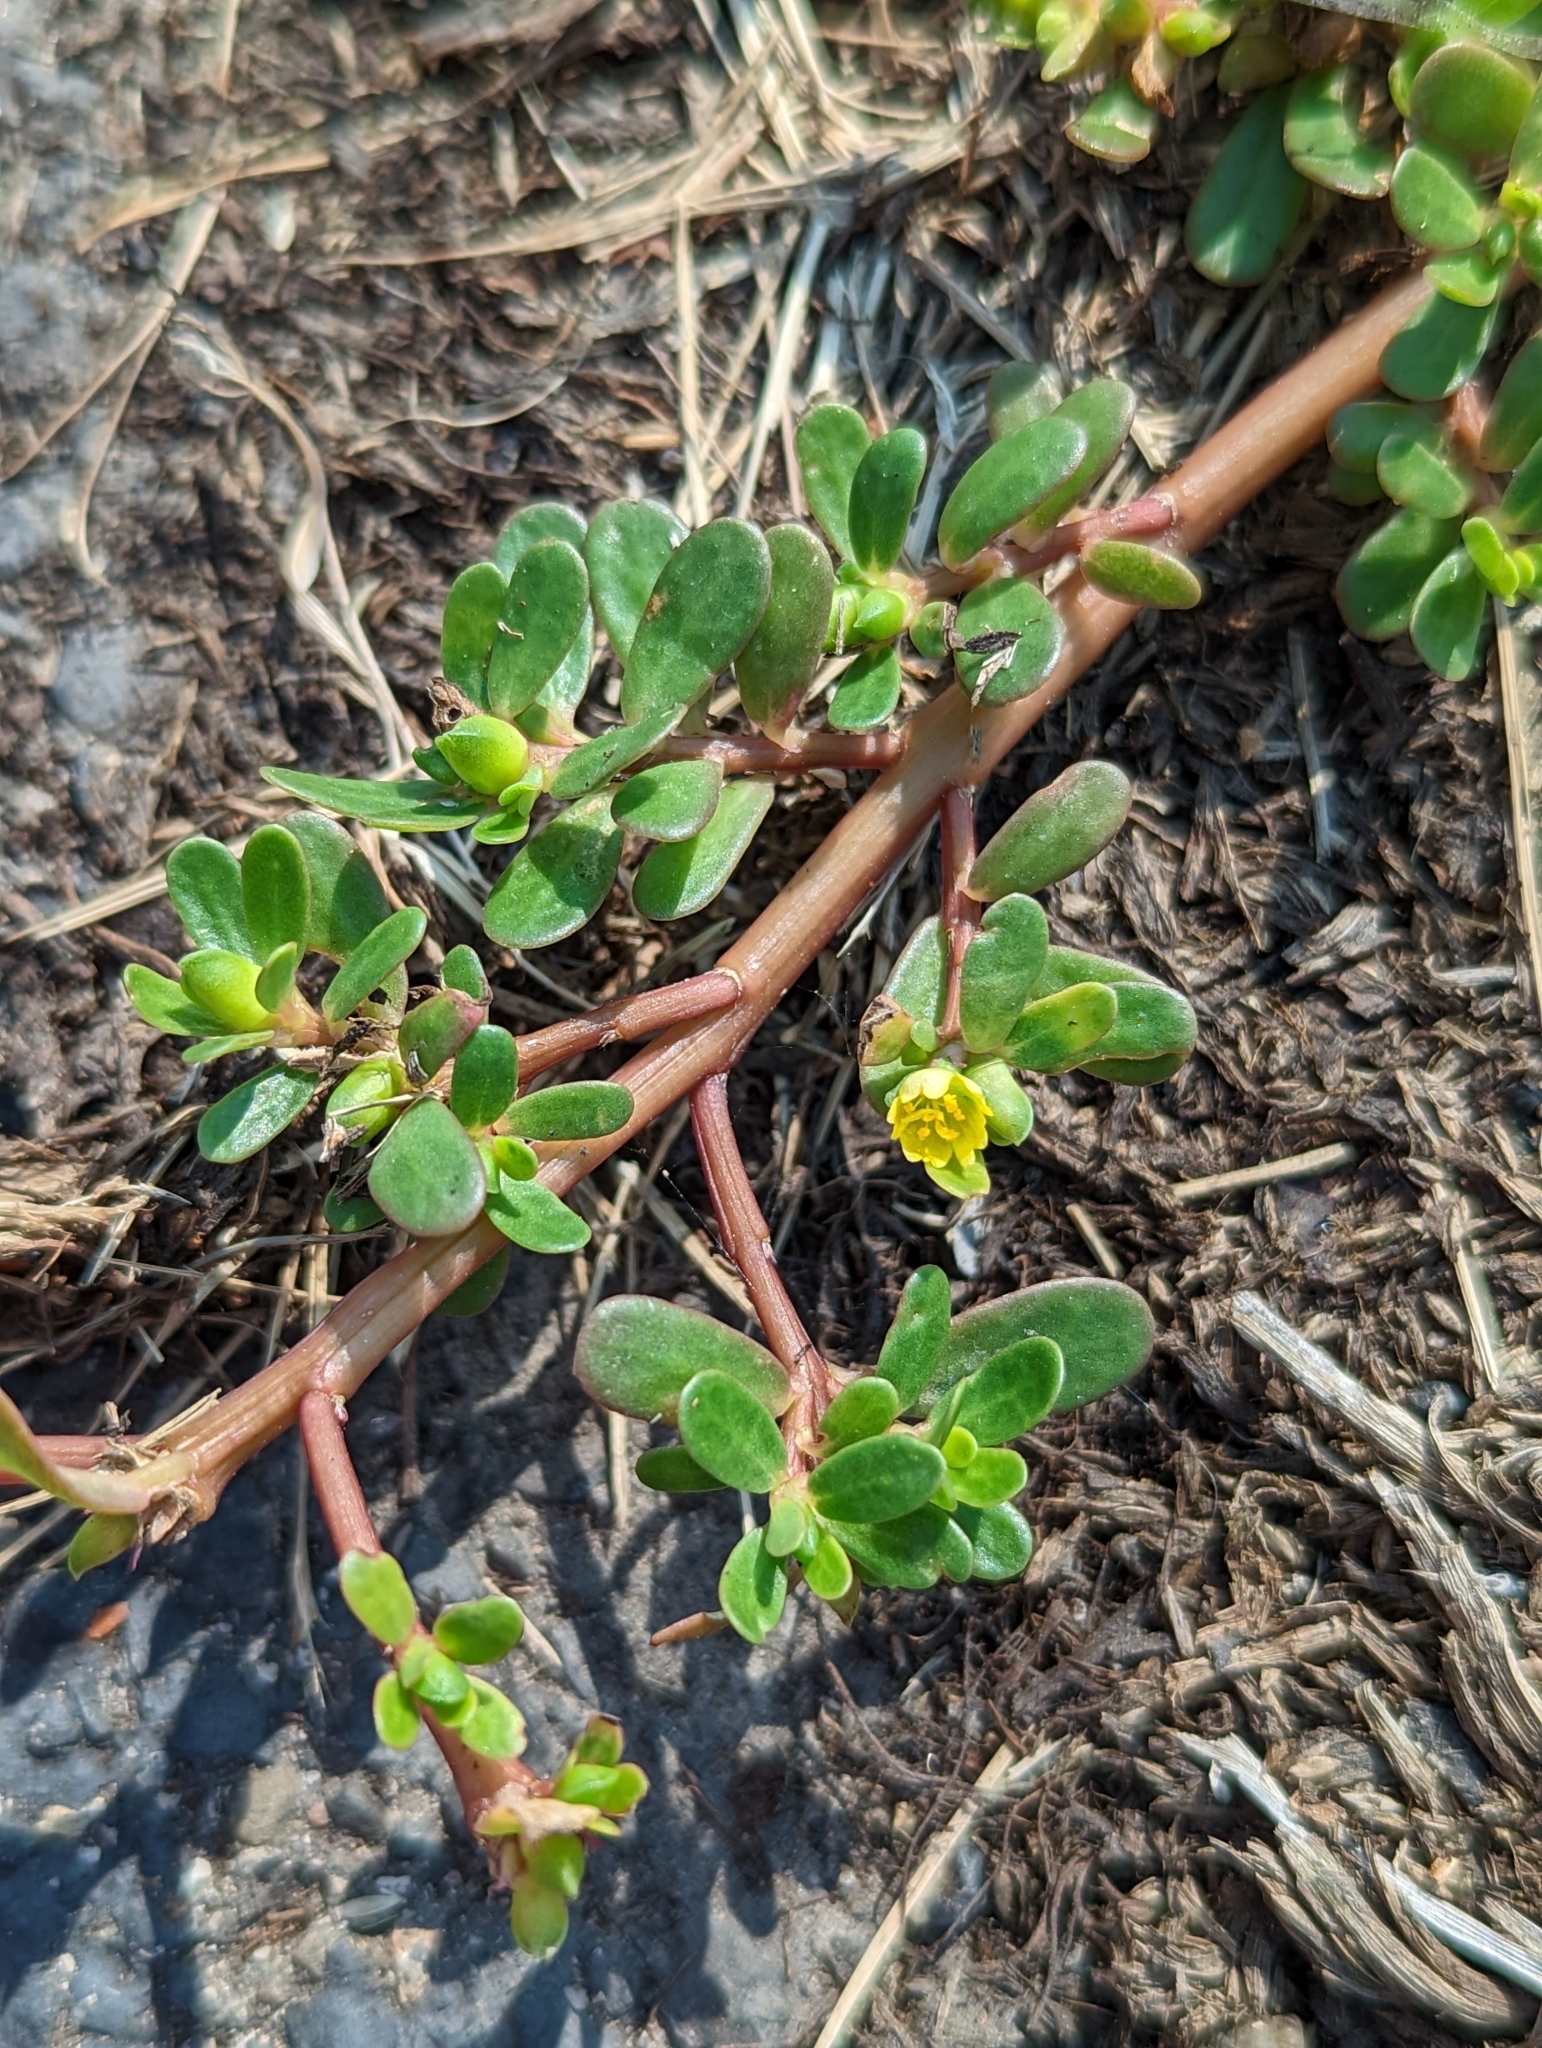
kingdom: Plantae
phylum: Tracheophyta
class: Magnoliopsida
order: Caryophyllales
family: Portulacaceae
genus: Portulaca
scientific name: Portulaca oleracea
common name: Common purslane
